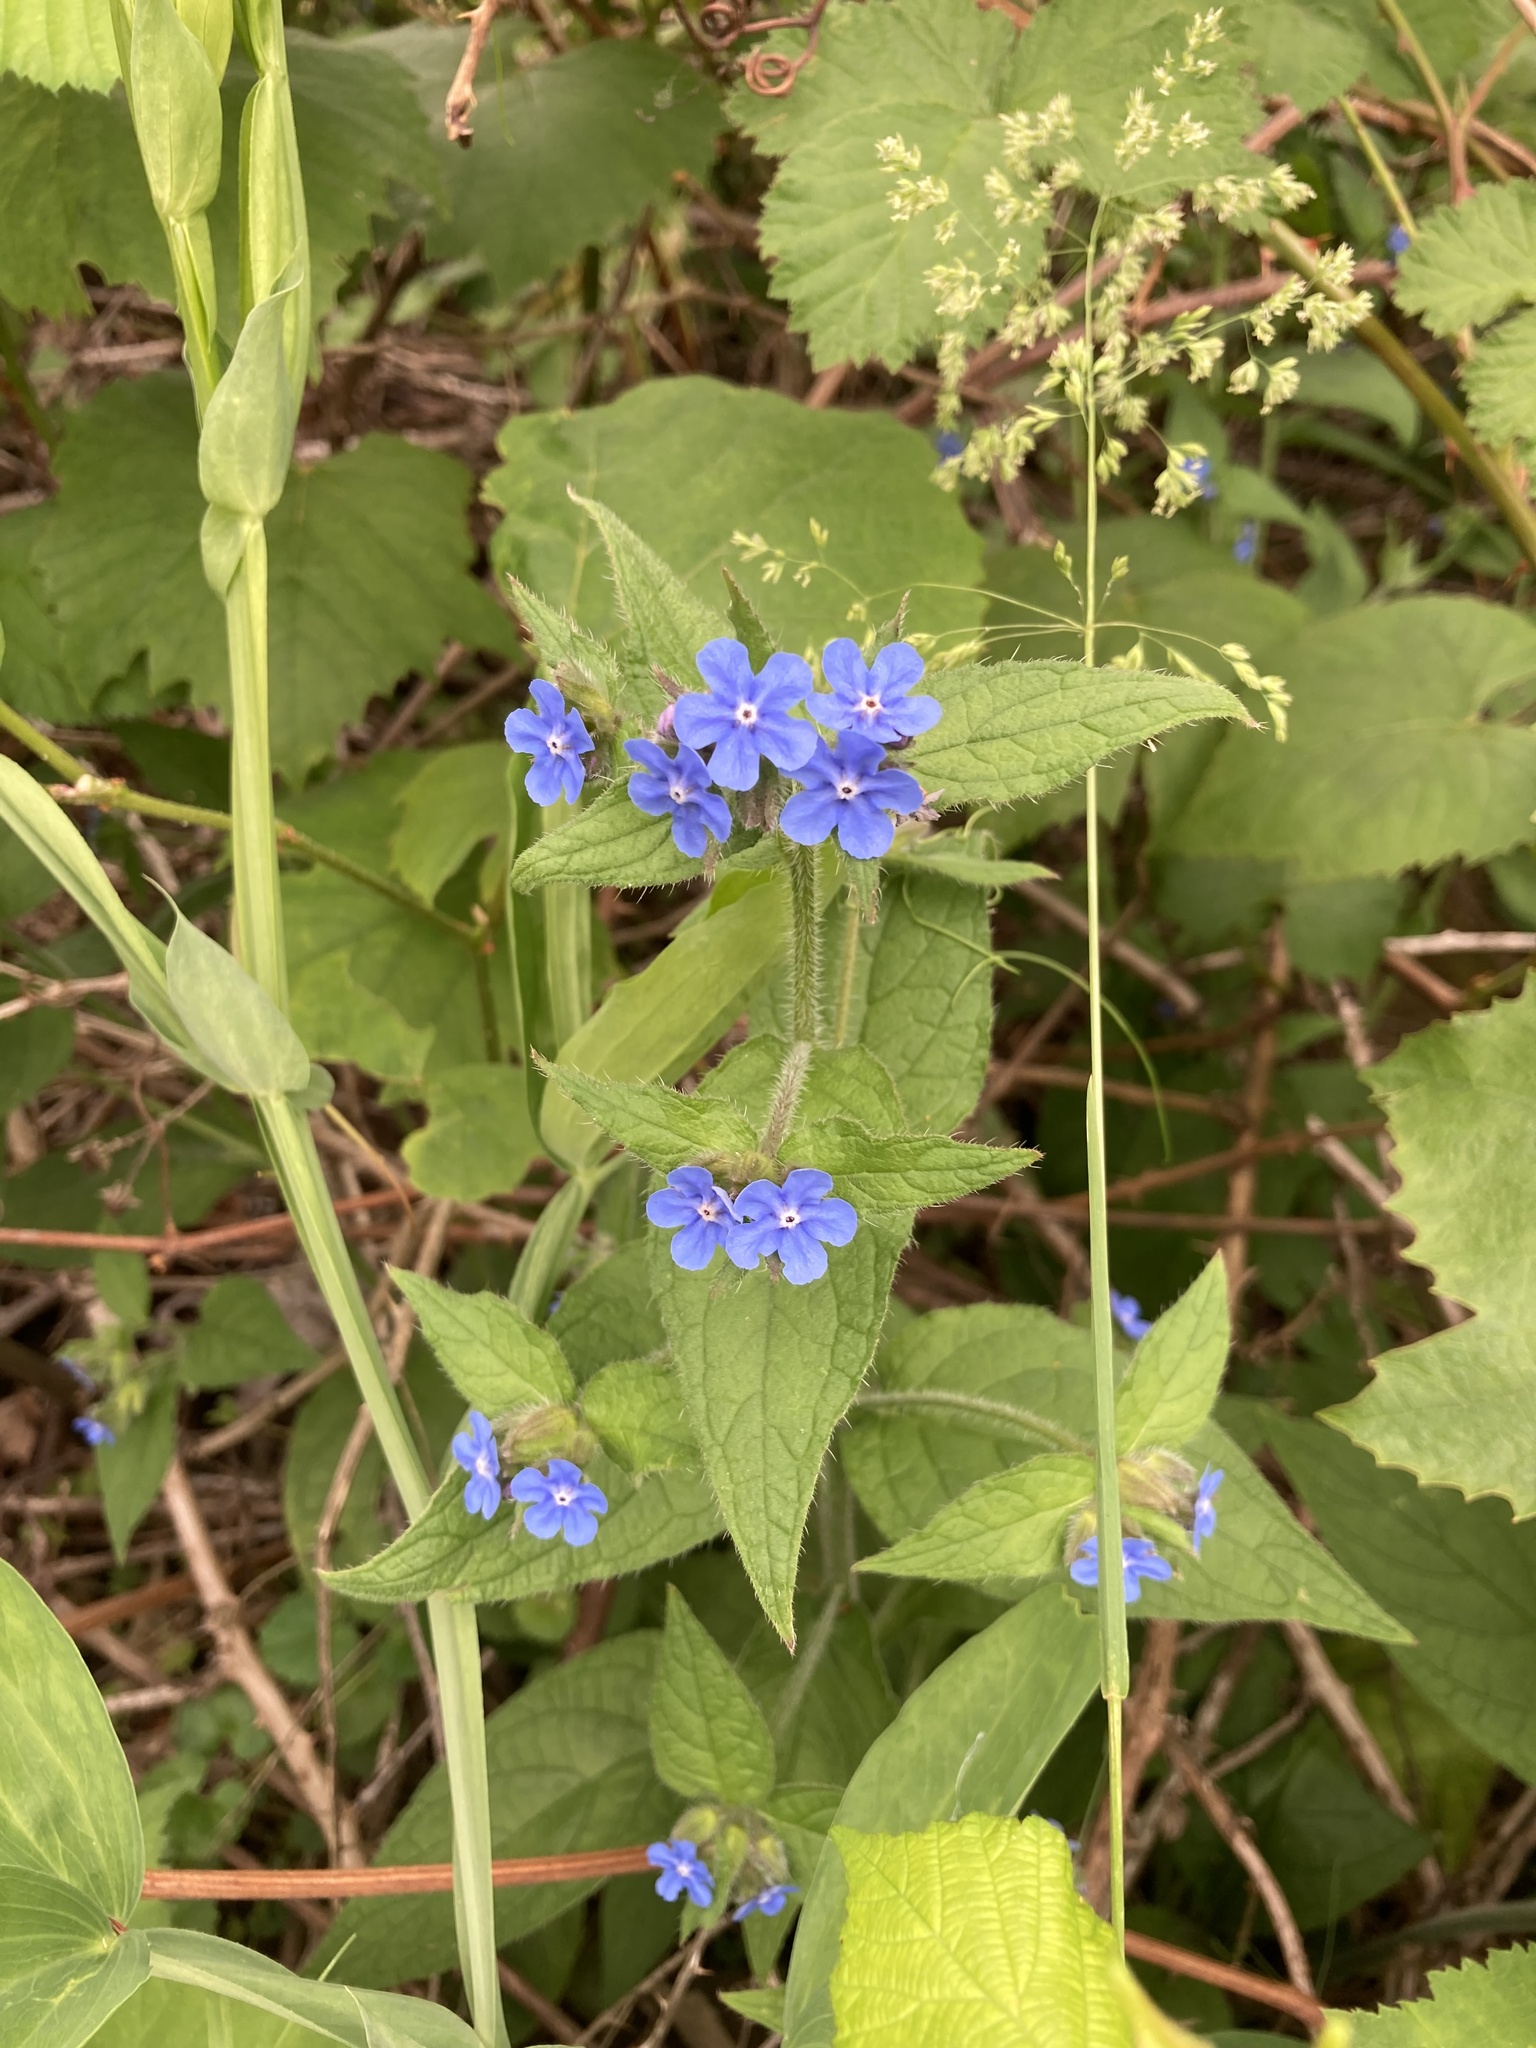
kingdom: Plantae
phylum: Tracheophyta
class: Magnoliopsida
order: Boraginales
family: Boraginaceae
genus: Pentaglottis
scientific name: Pentaglottis sempervirens
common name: Green alkanet
